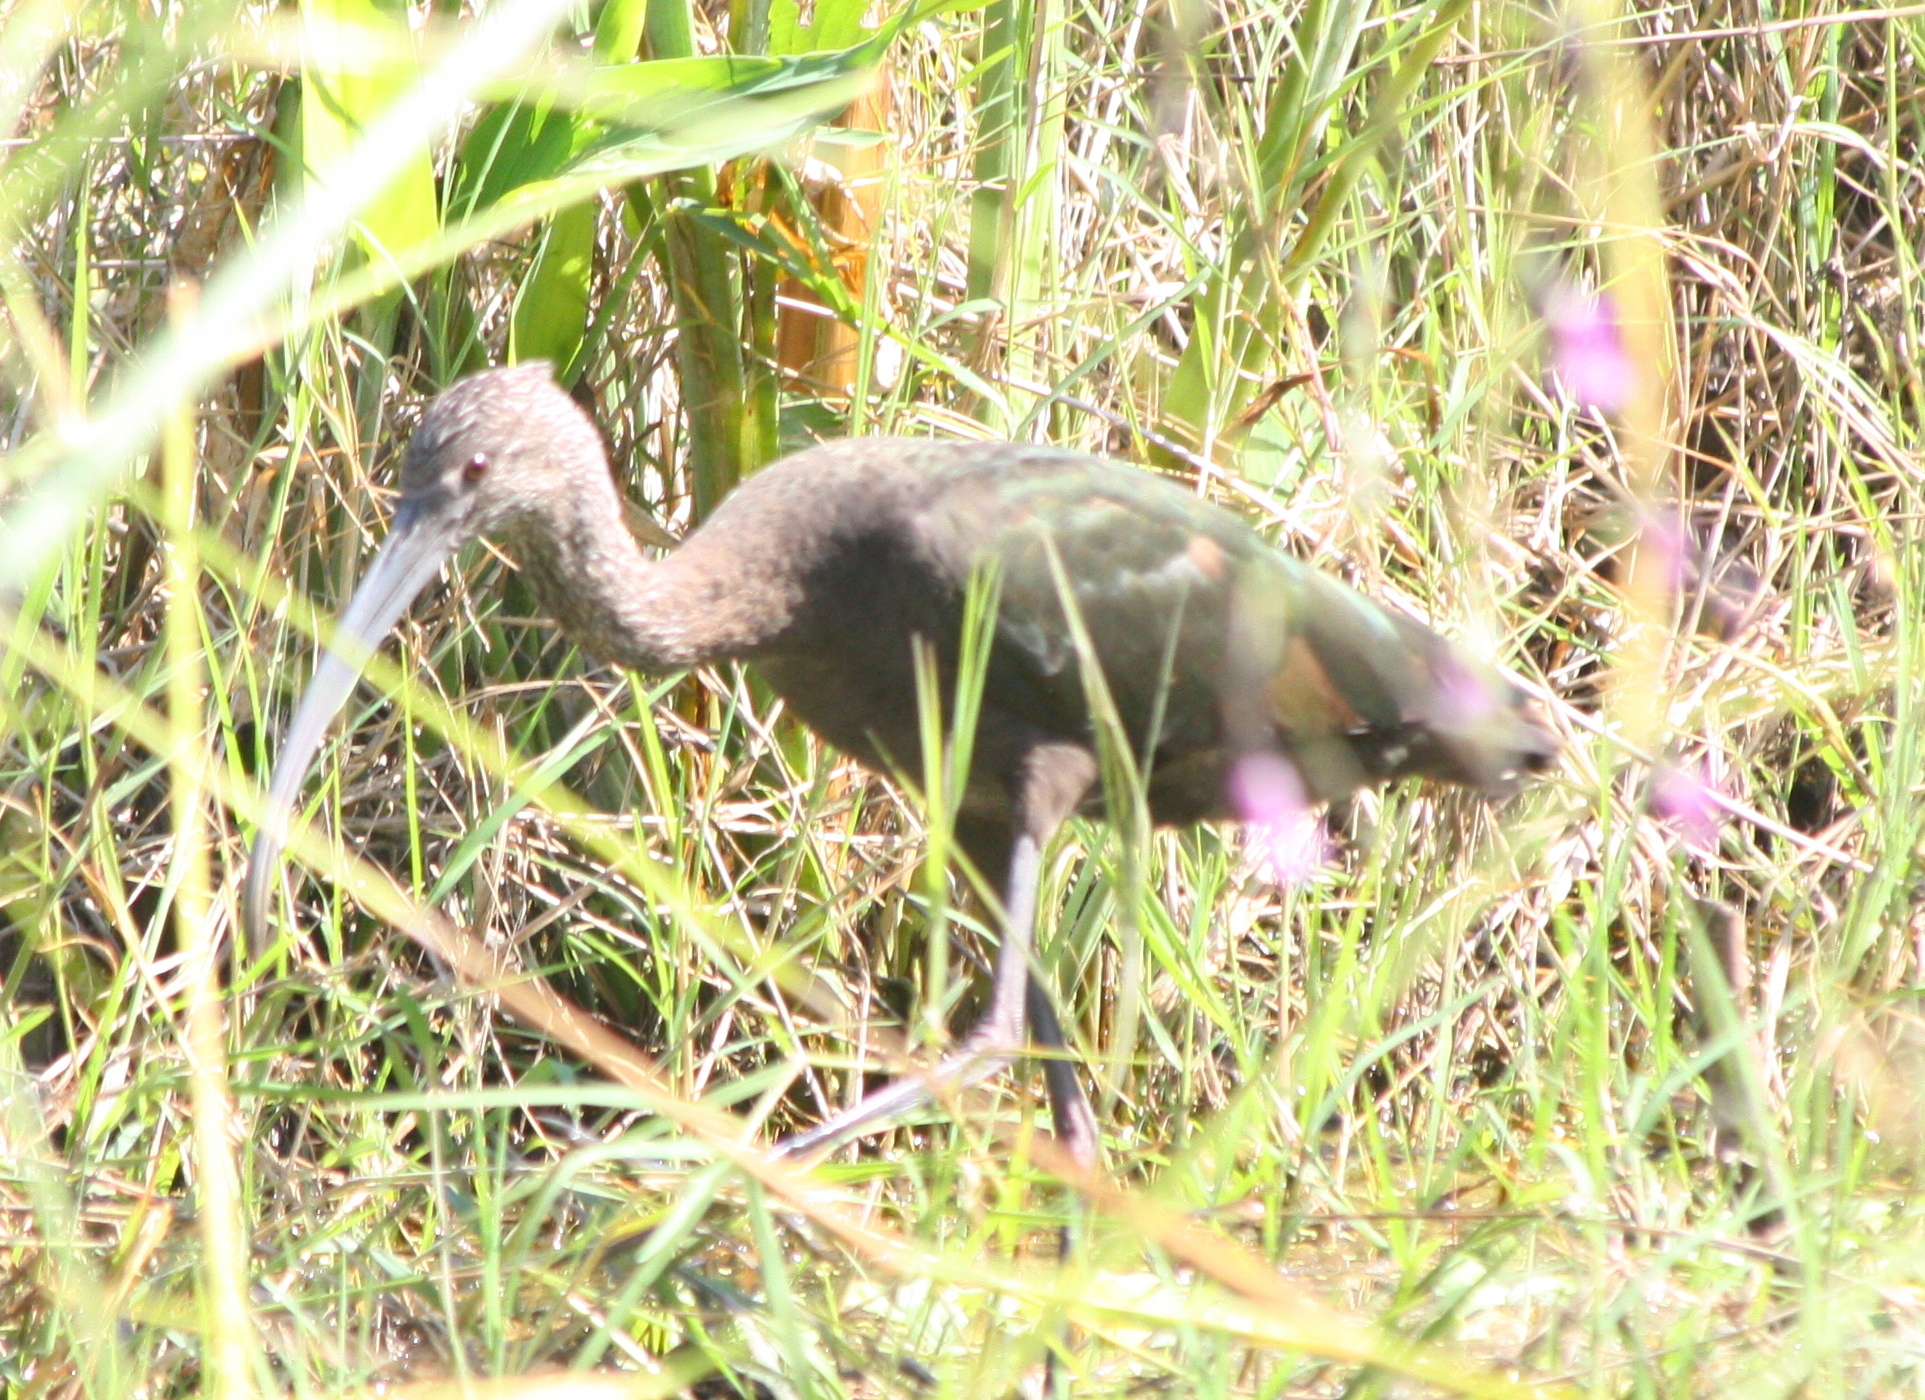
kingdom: Animalia
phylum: Chordata
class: Aves
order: Pelecaniformes
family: Threskiornithidae
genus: Plegadis
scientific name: Plegadis chihi
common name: White-faced ibis
